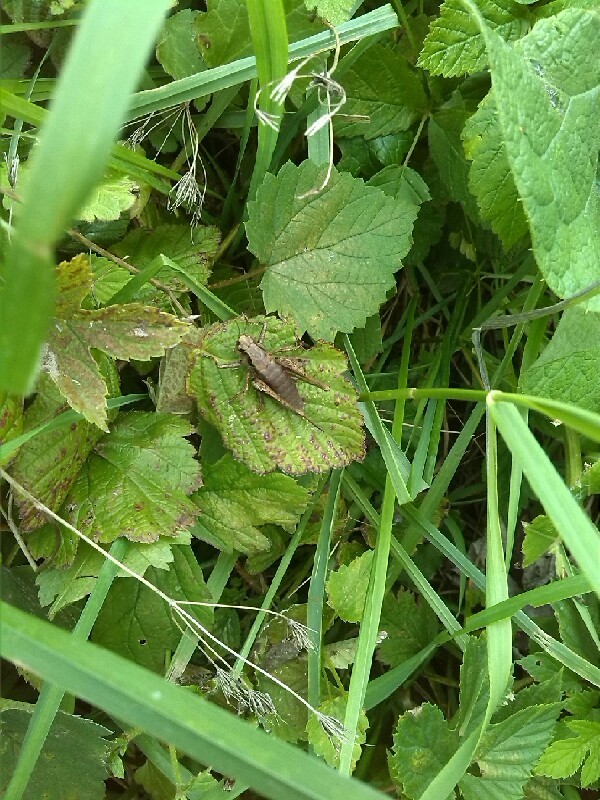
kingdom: Animalia
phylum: Arthropoda
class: Insecta
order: Orthoptera
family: Tettigoniidae
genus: Pholidoptera
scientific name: Pholidoptera griseoaptera
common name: Dark bush-cricket
